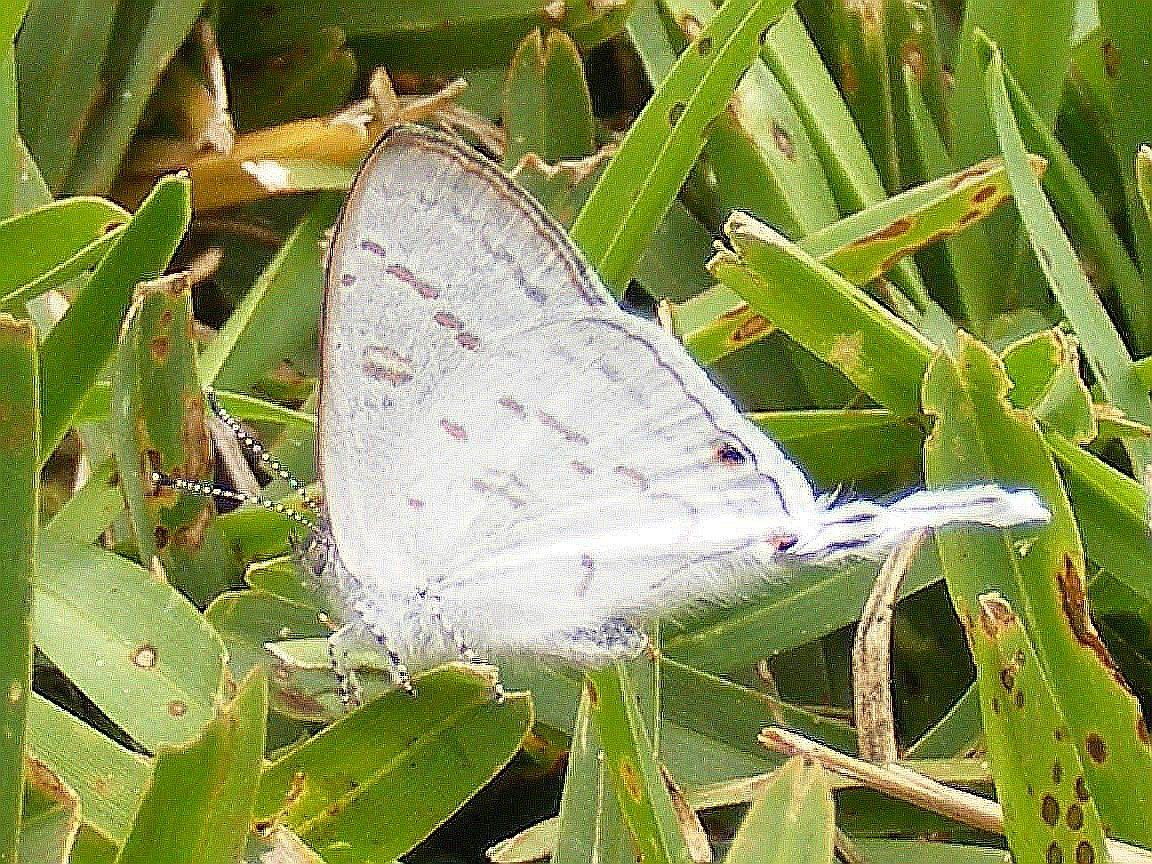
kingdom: Animalia
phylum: Arthropoda
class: Insecta
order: Lepidoptera
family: Lycaenidae
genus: Leptomyrina
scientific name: Leptomyrina hirundo
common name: Tailed black-eye
